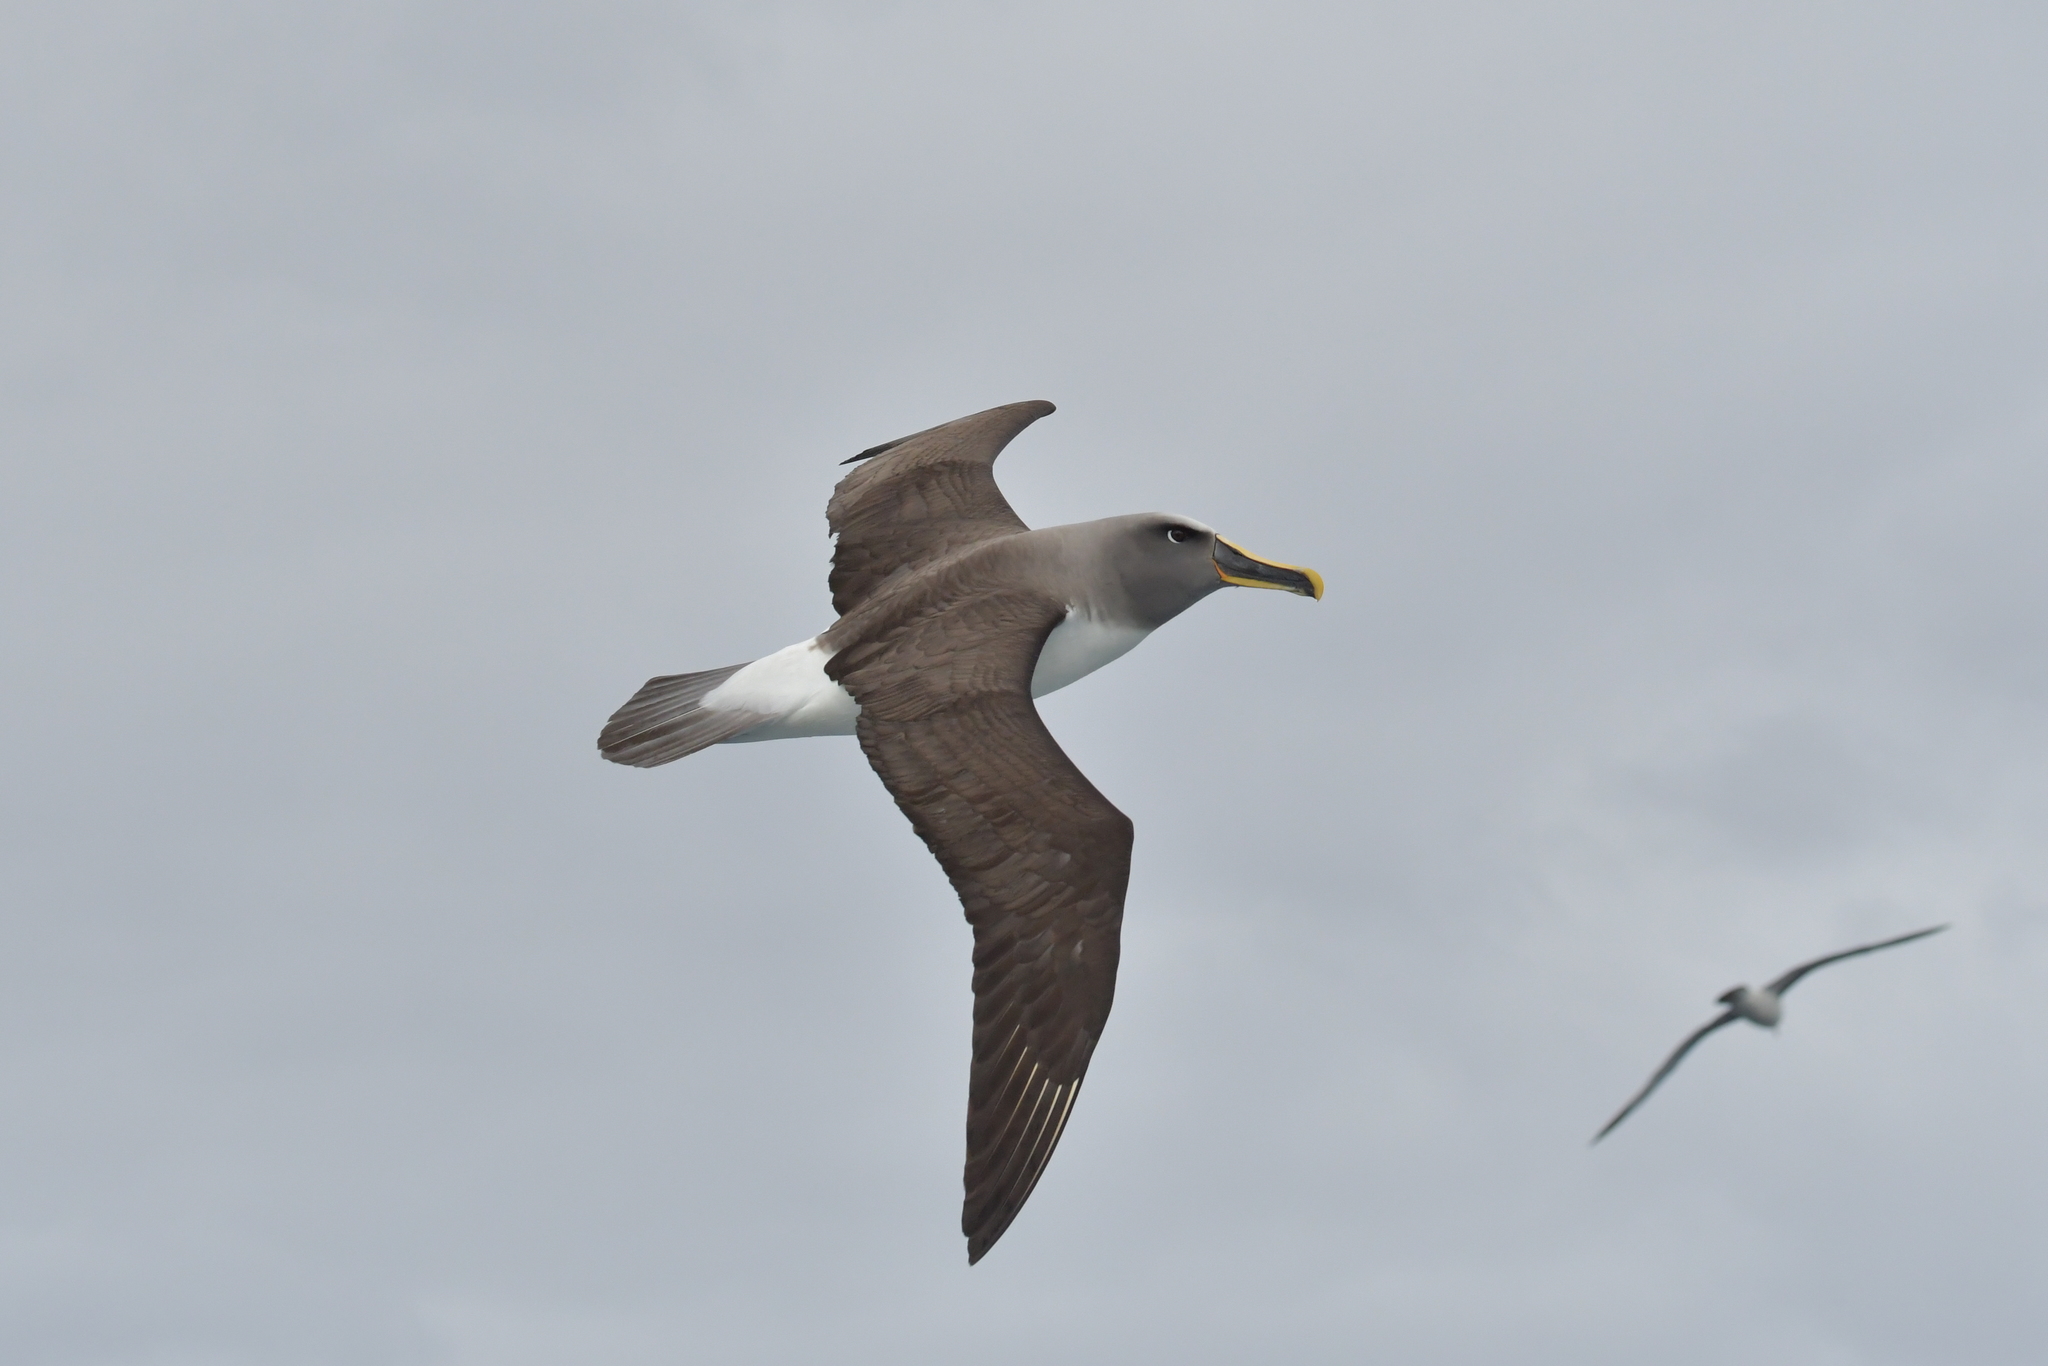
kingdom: Animalia
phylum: Chordata
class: Aves
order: Procellariiformes
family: Diomedeidae
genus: Thalassarche
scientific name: Thalassarche bulleri
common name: Buller's albatross
